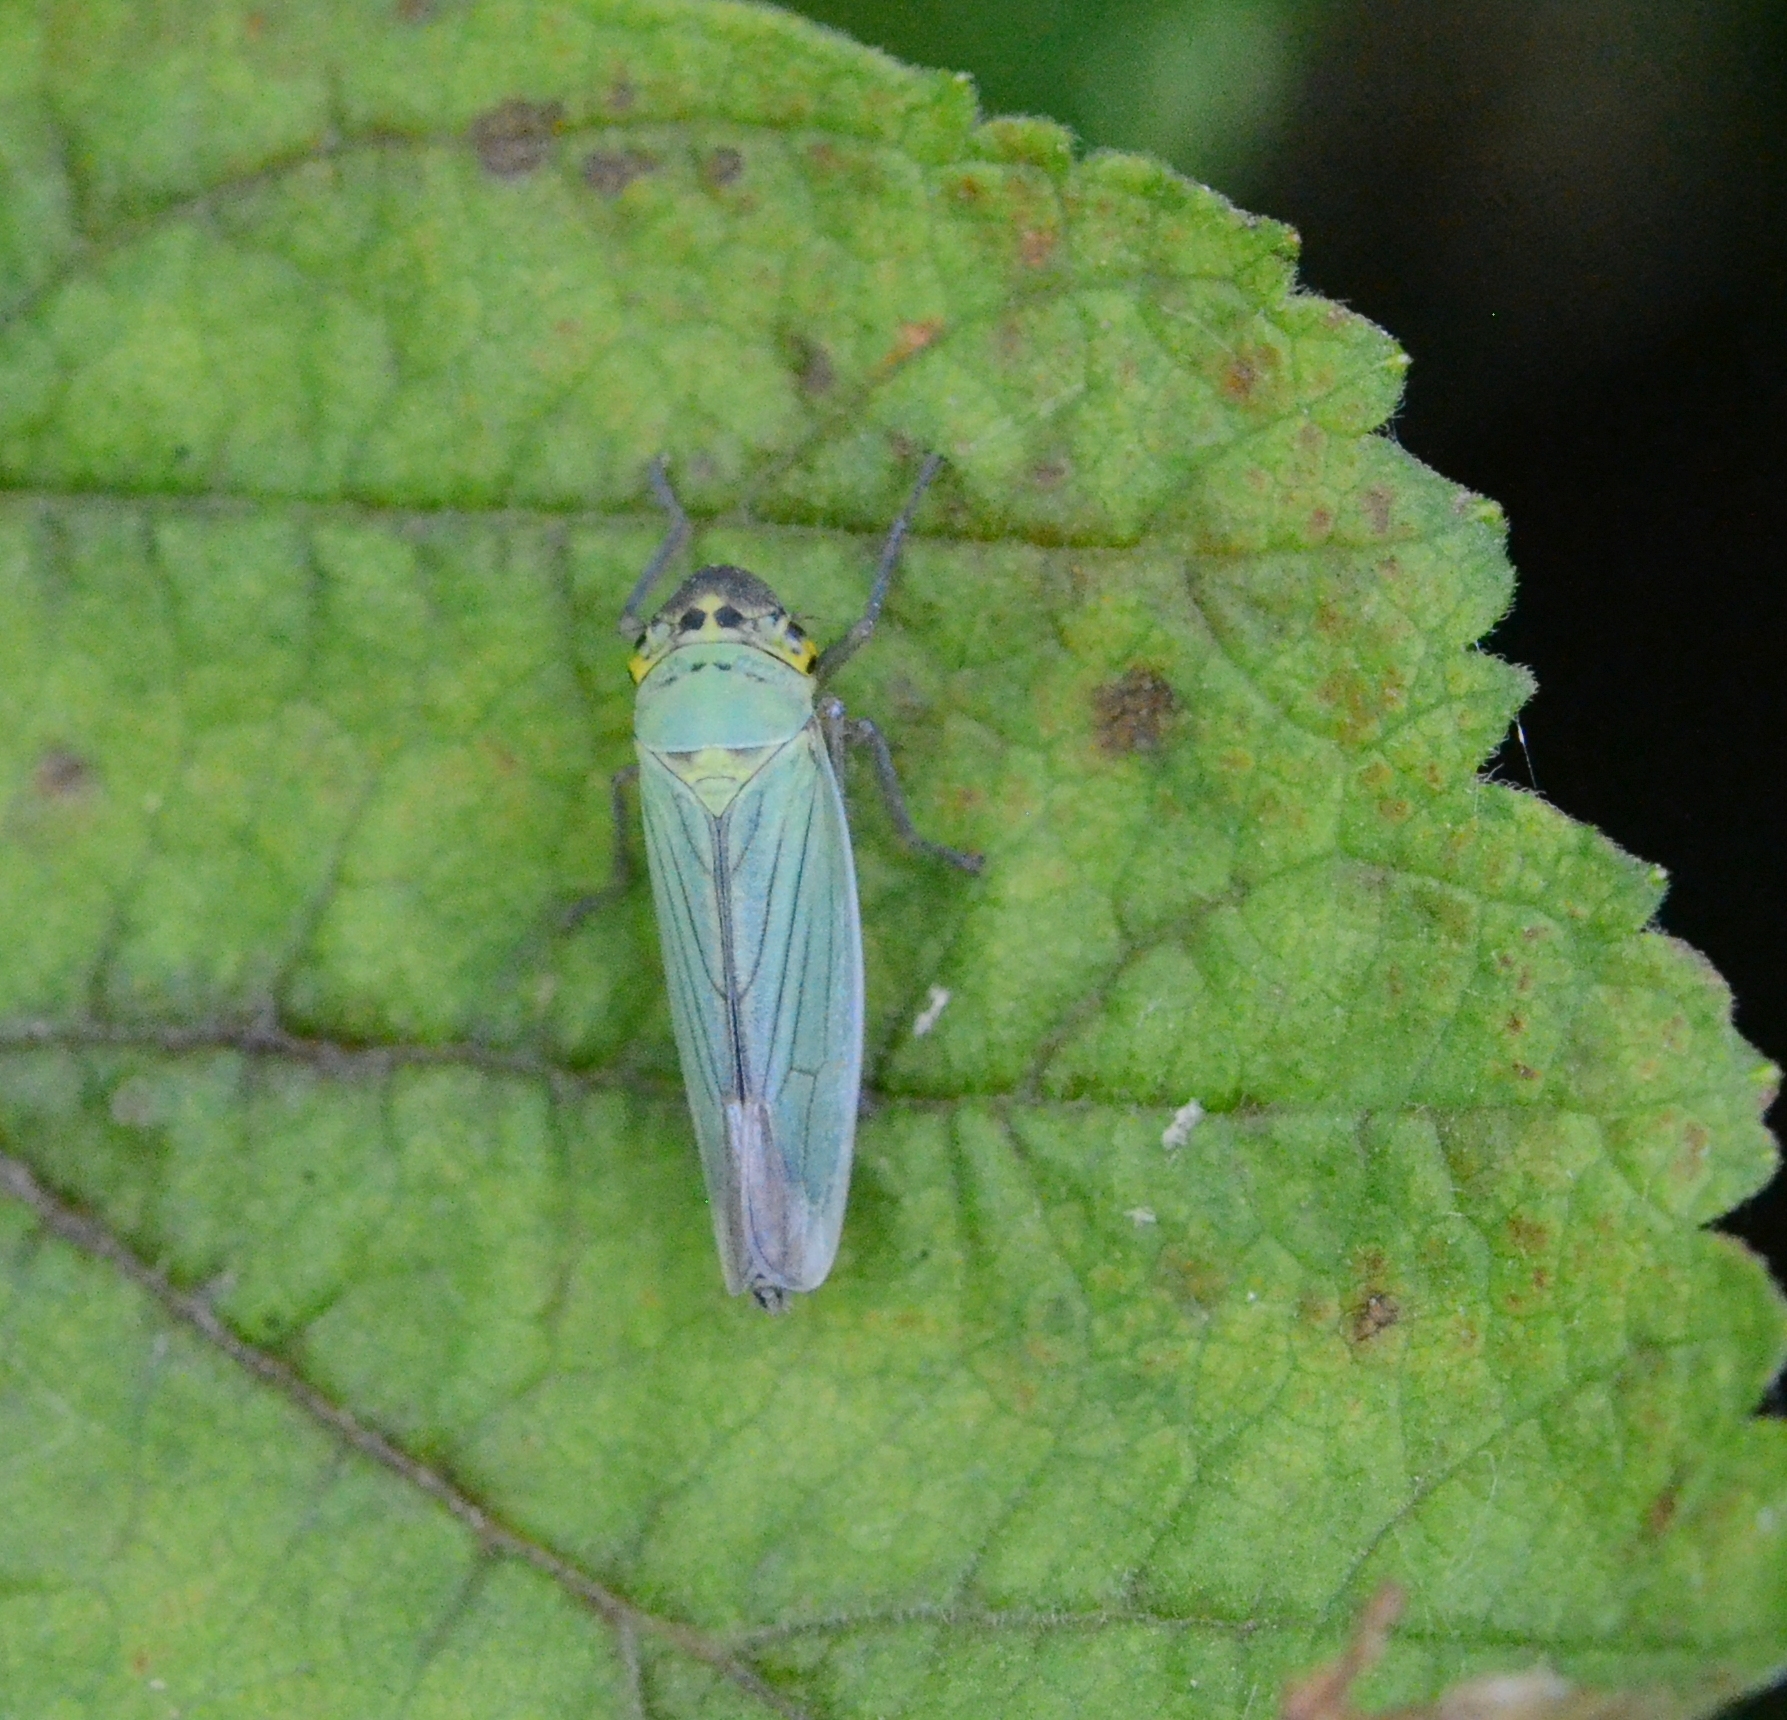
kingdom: Animalia
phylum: Arthropoda
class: Insecta
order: Hemiptera
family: Cicadellidae
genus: Cicadella
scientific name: Cicadella viridis
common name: Leafhopper
